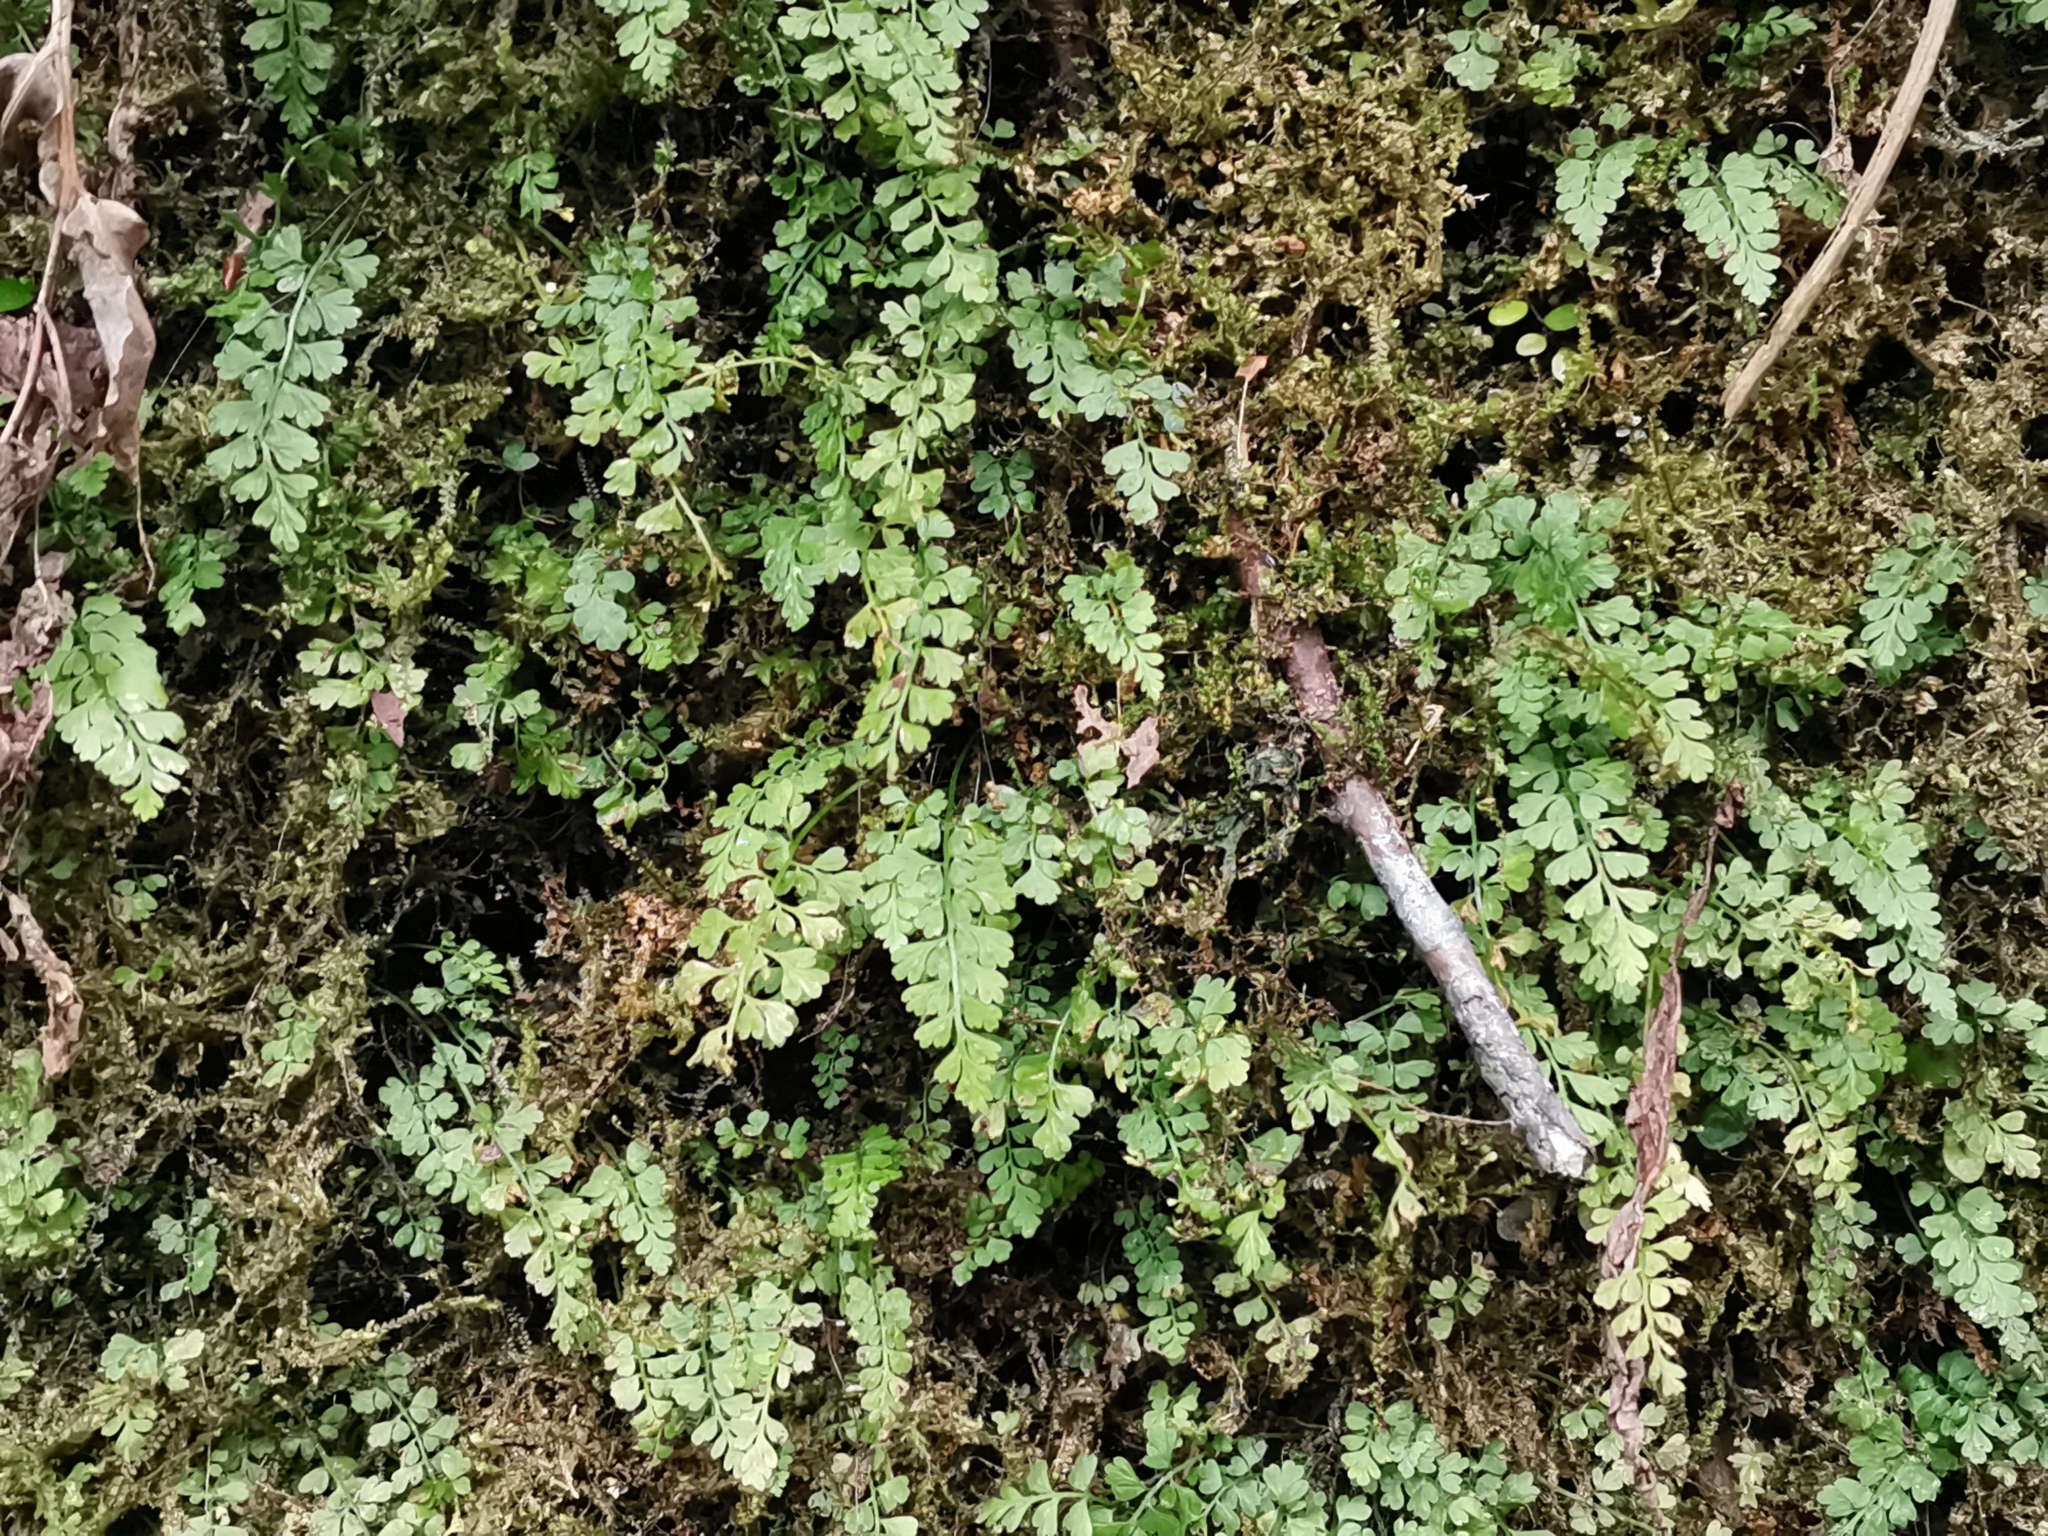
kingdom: Plantae
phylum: Tracheophyta
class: Polypodiopsida
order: Polypodiales
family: Aspleniaceae
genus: Asplenium
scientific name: Asplenium laciniatum
